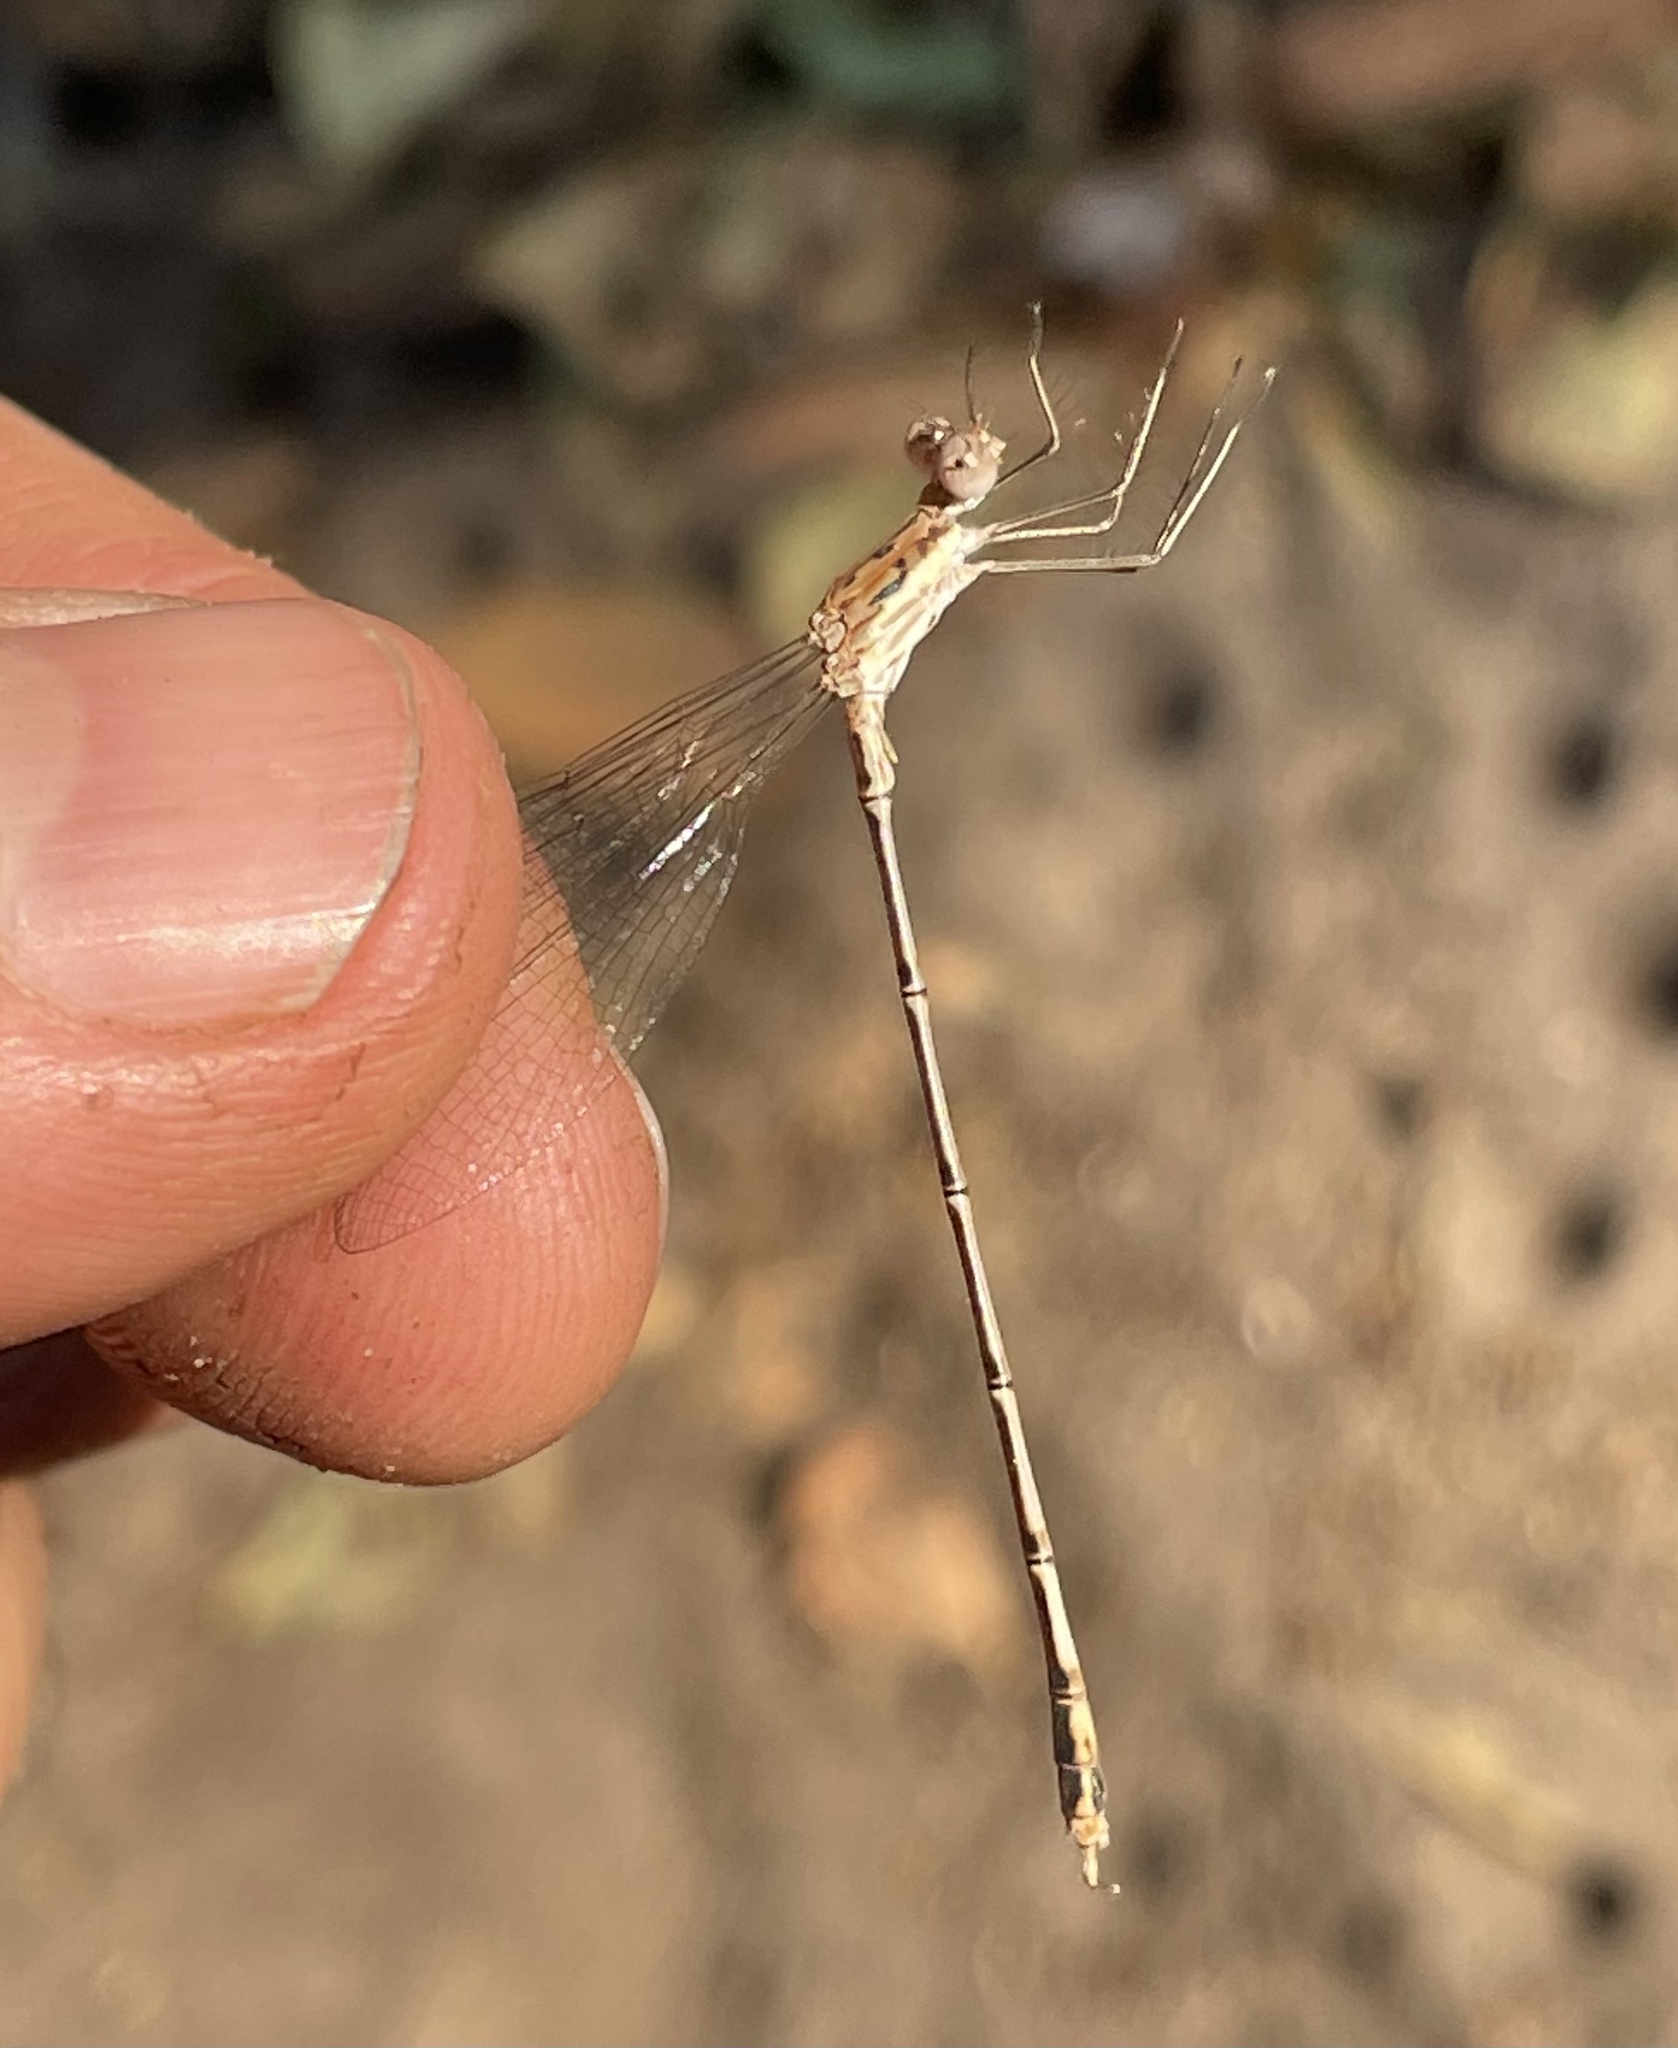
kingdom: Animalia
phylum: Arthropoda
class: Insecta
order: Odonata
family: Lestidae
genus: Lestes
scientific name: Lestes pinheyi
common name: Pinhey's spreadwing
